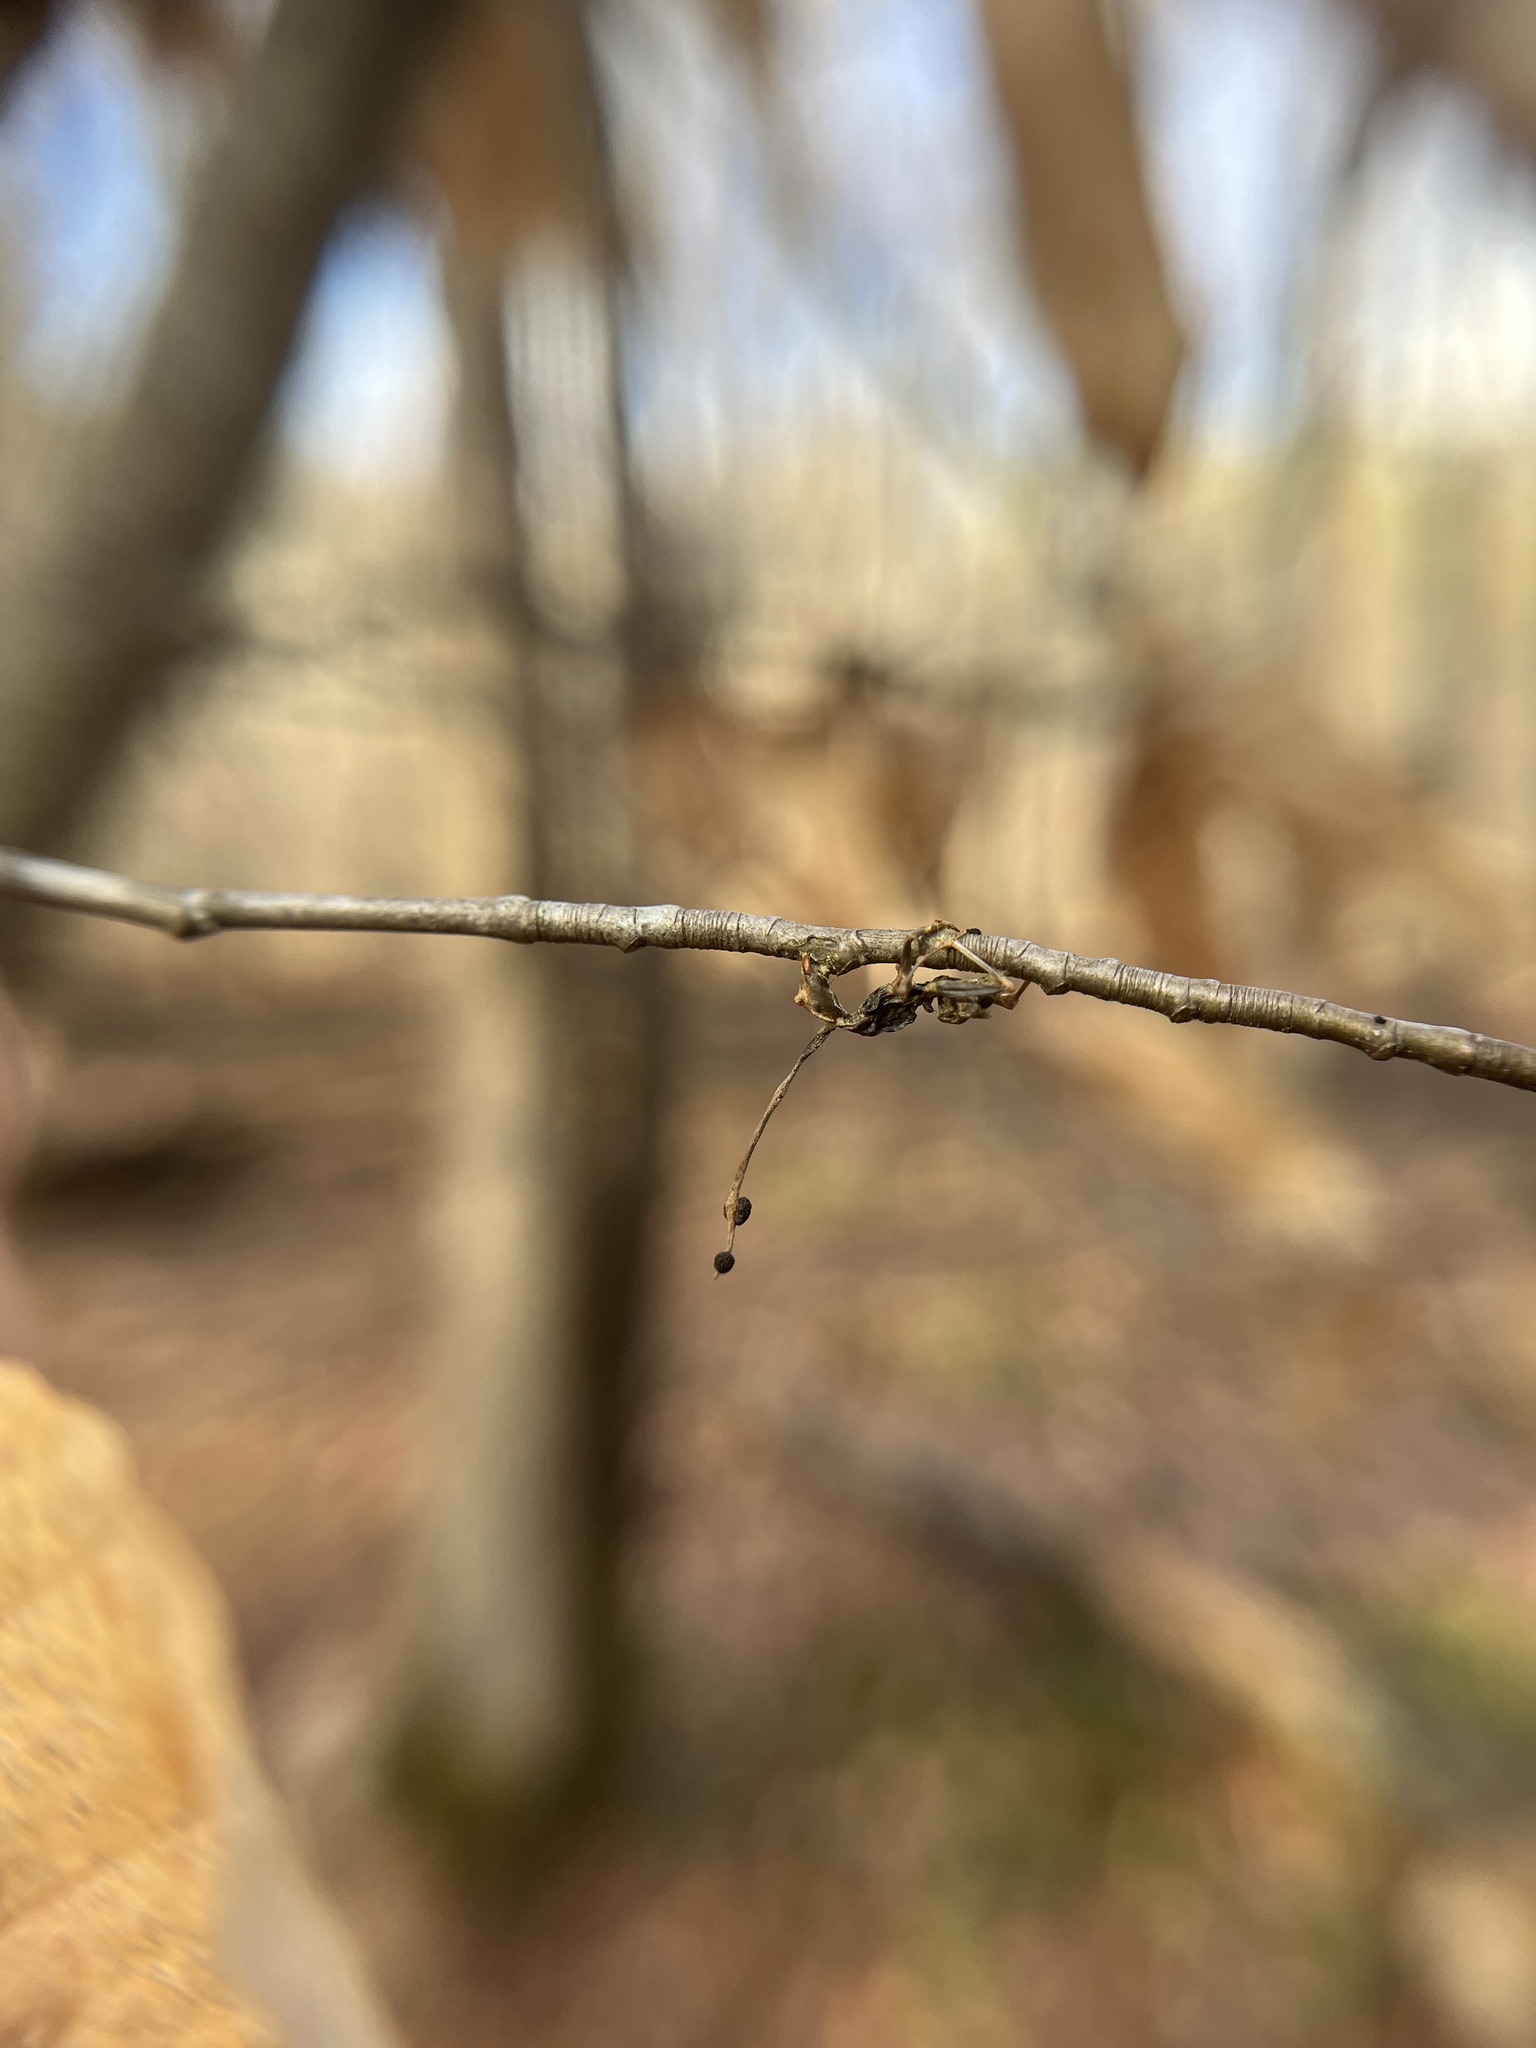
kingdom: Fungi
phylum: Ascomycota
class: Sordariomycetes
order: Hypocreales
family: Ophiocordycipitaceae
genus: Ophiocordyceps
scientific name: Ophiocordyceps kimflemingiae
